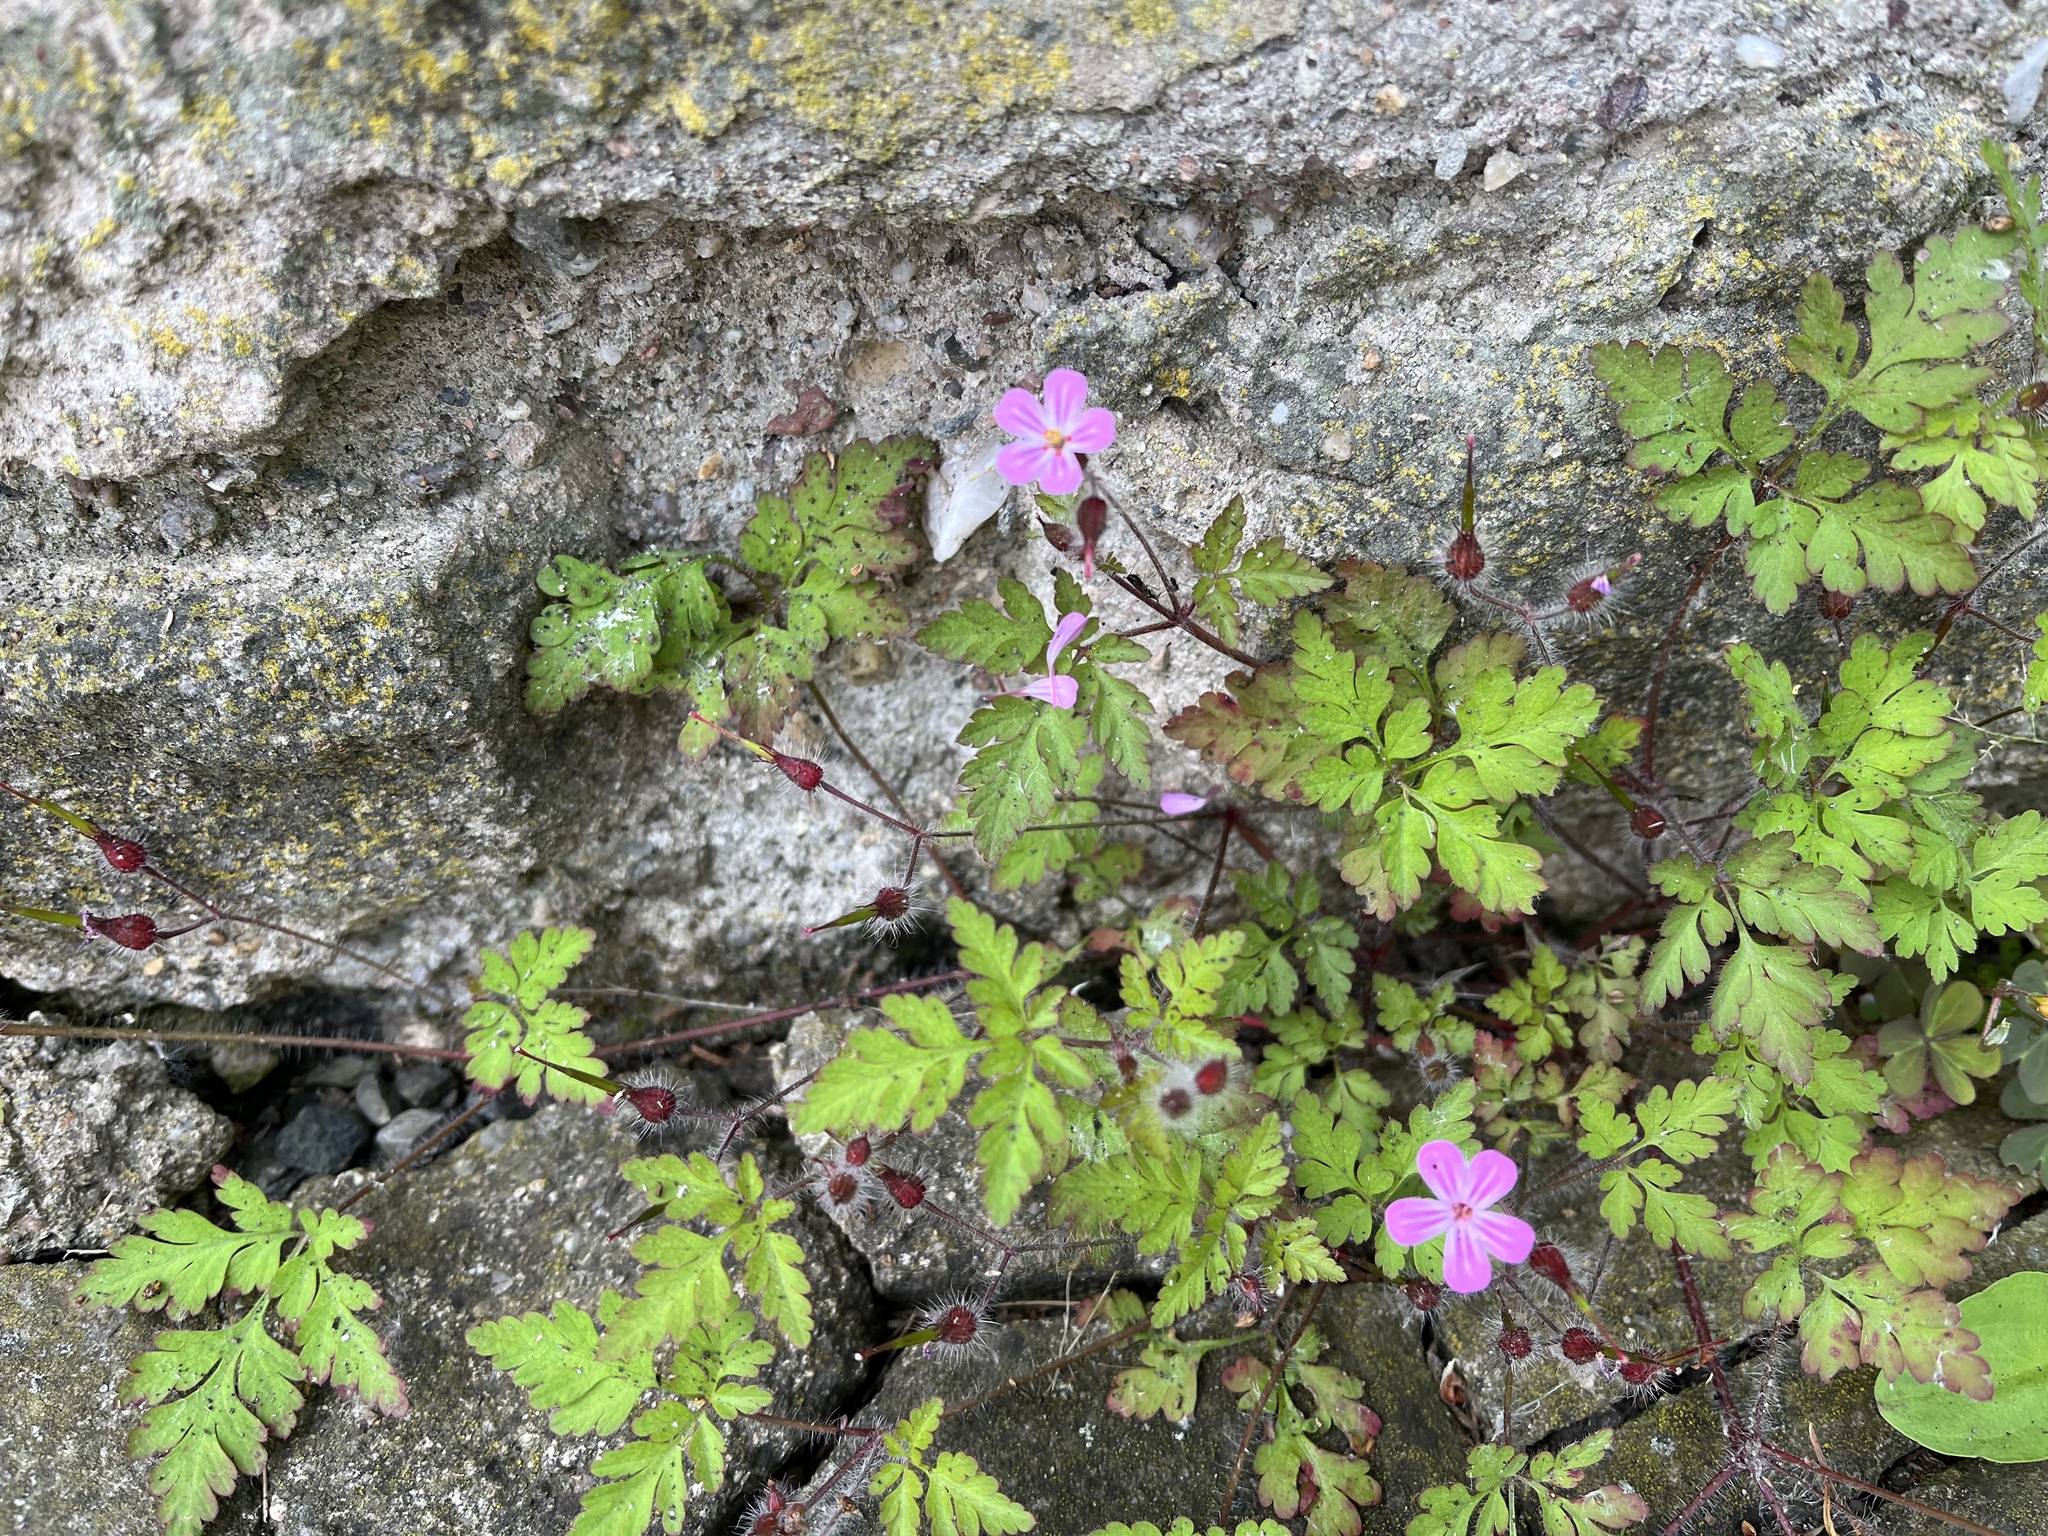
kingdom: Plantae
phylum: Tracheophyta
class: Magnoliopsida
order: Geraniales
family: Geraniaceae
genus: Geranium
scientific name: Geranium robertianum
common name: Herb-robert
